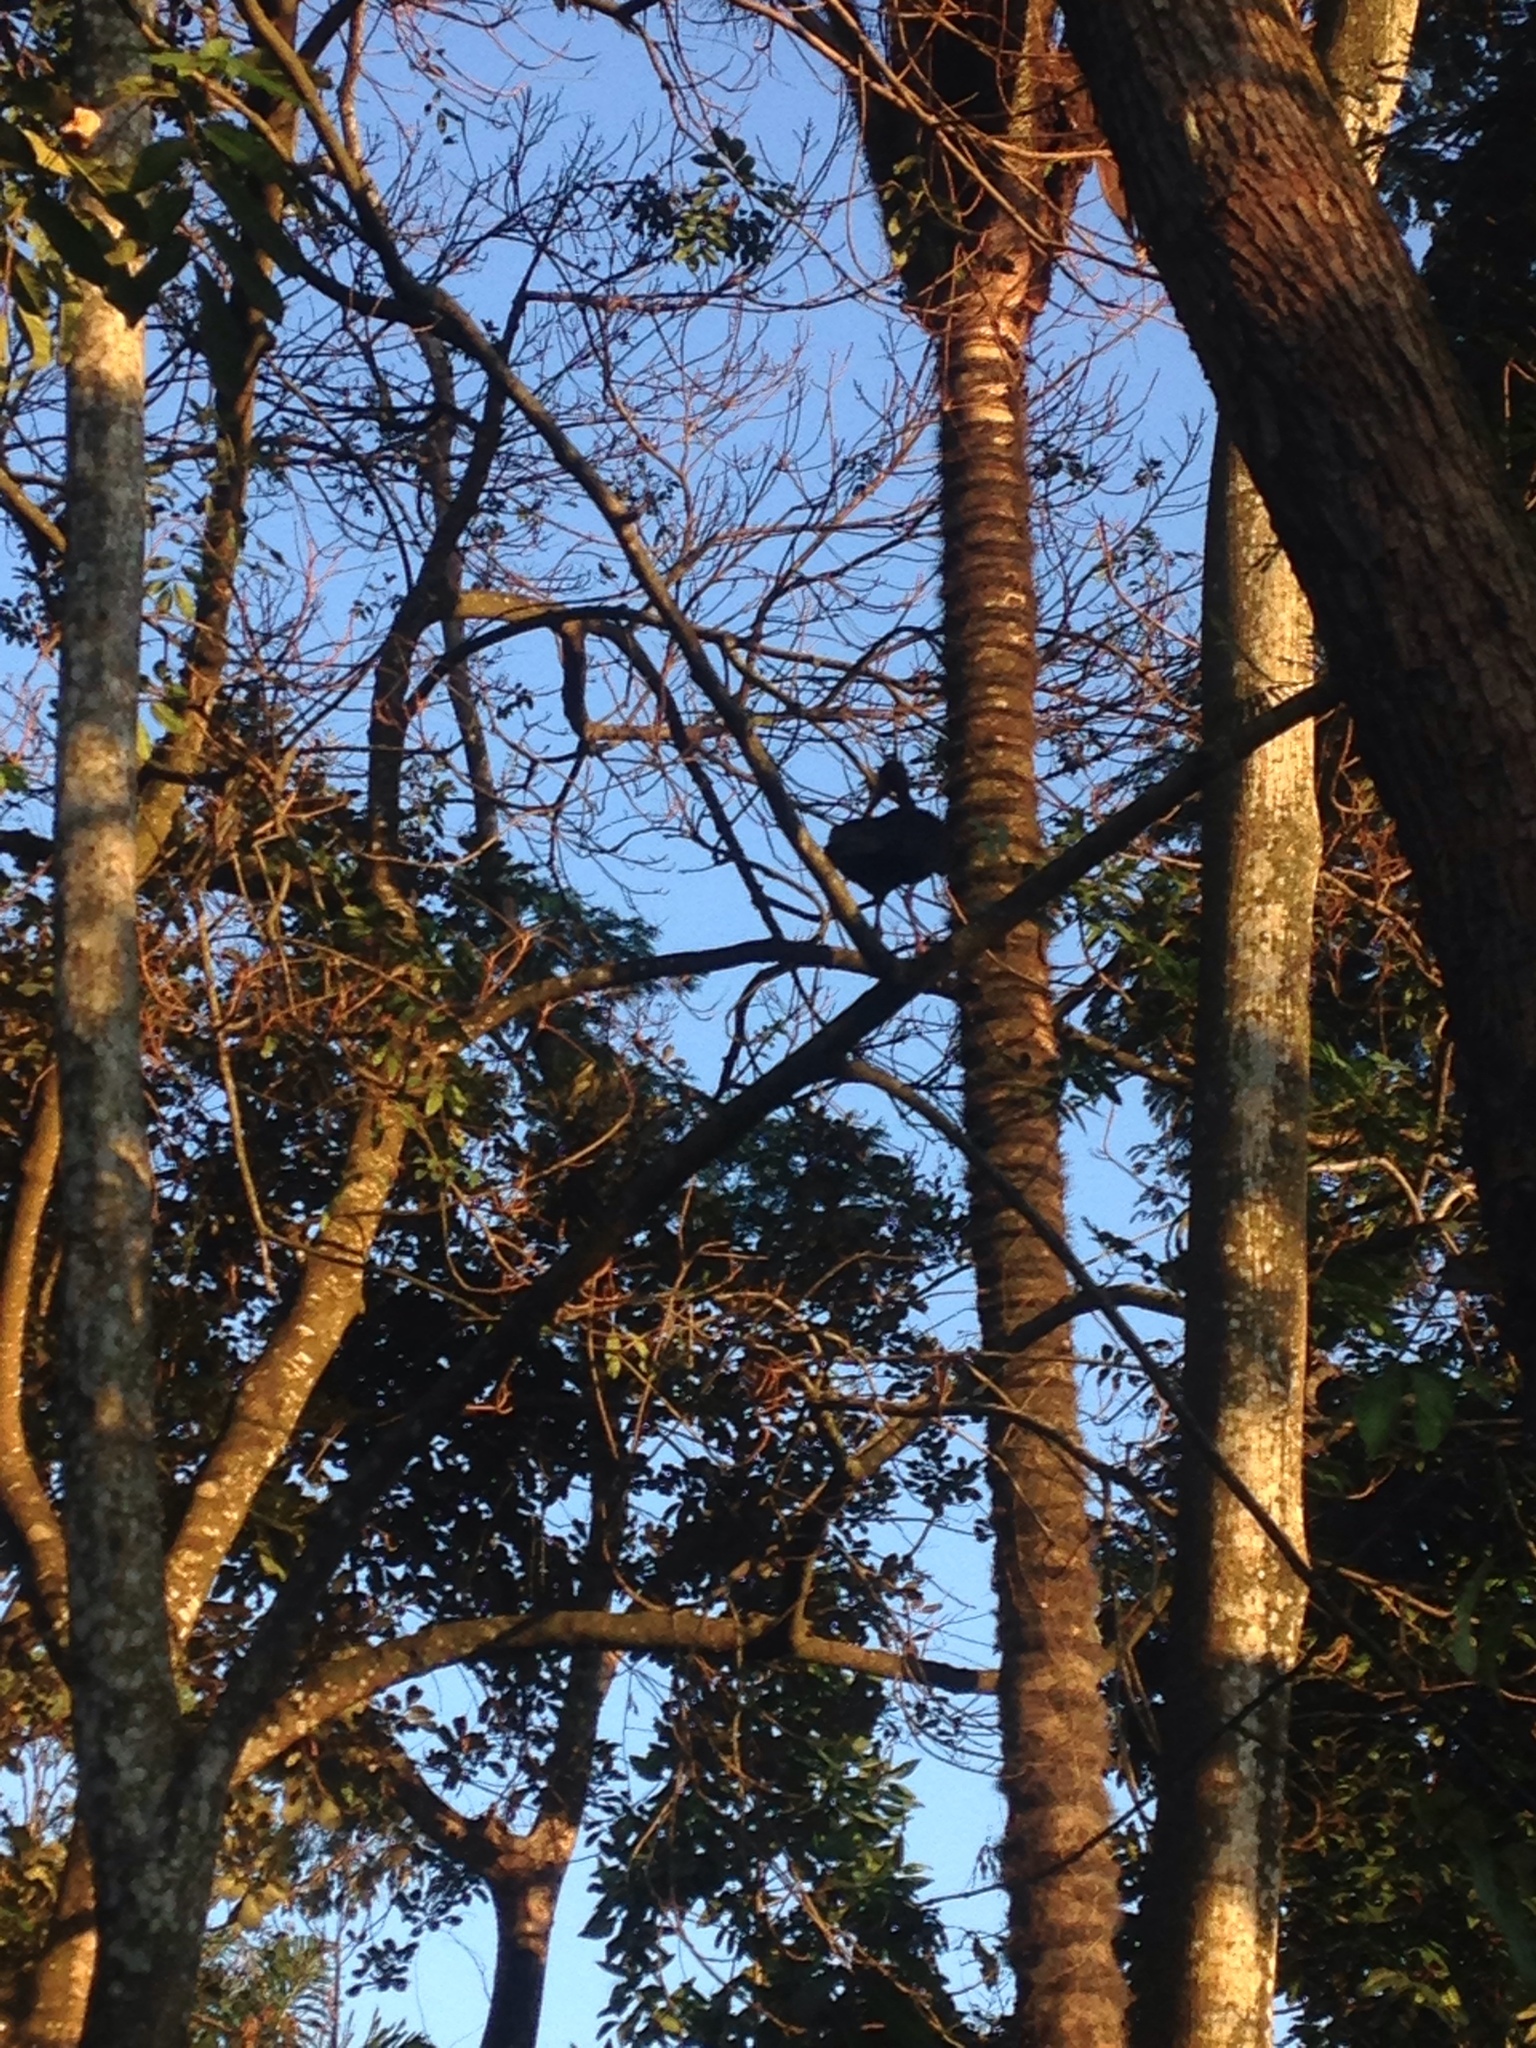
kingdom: Animalia
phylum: Chordata
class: Aves
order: Pelecaniformes
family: Threskiornithidae
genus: Phimosus
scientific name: Phimosus infuscatus
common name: Bare-faced ibis
